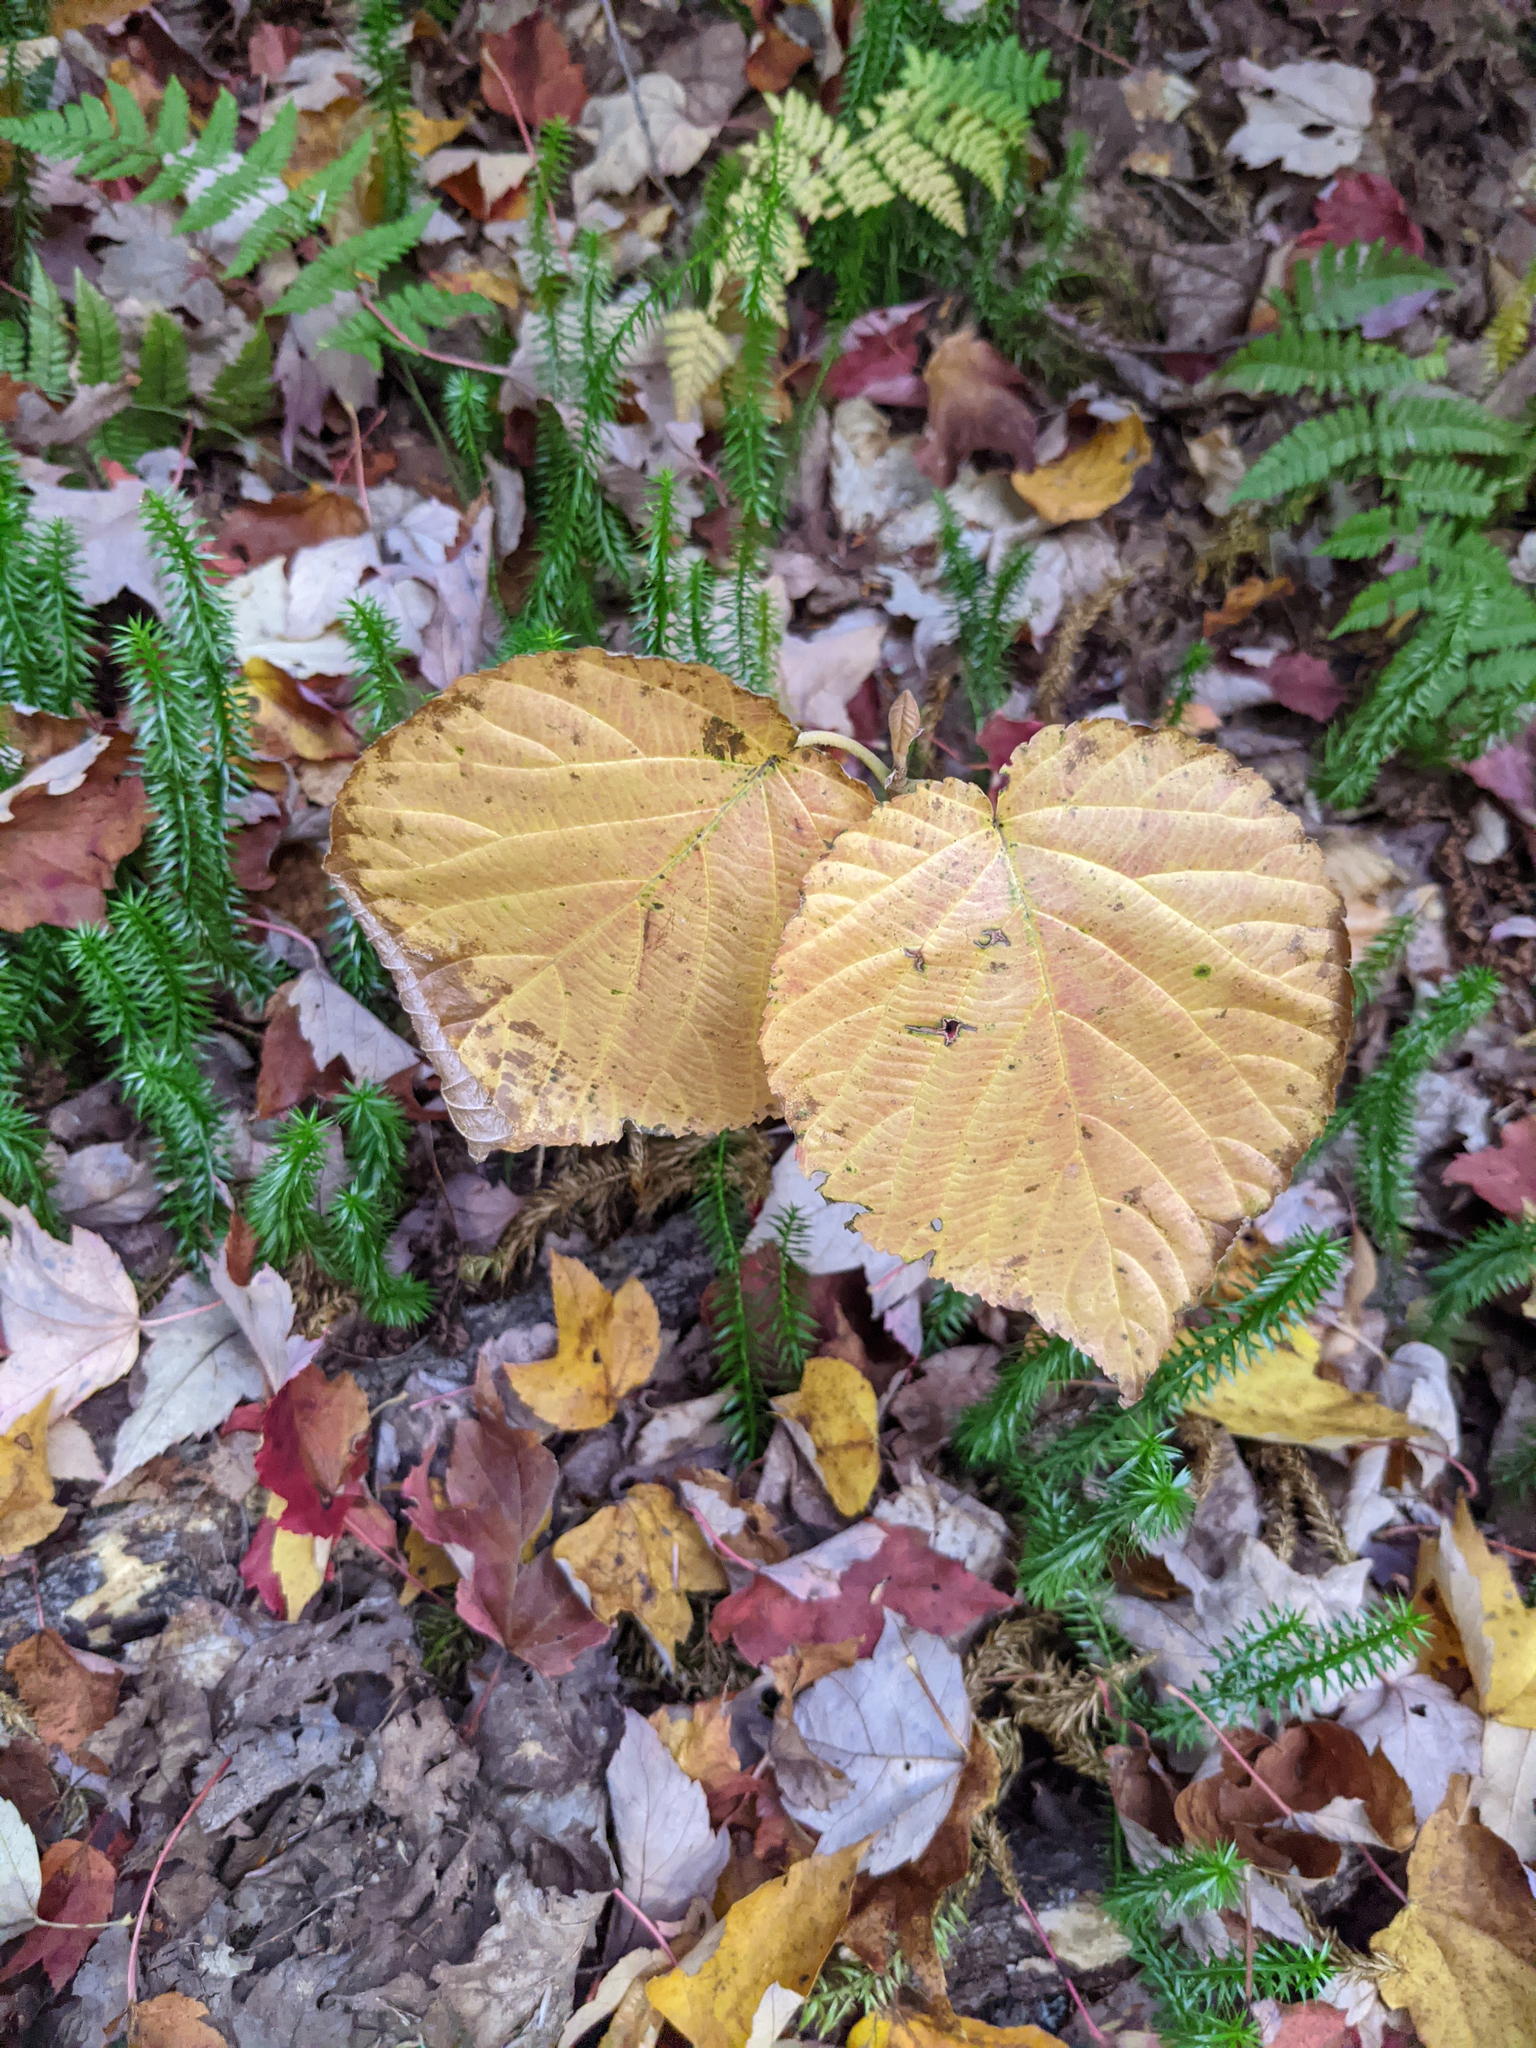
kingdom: Plantae
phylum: Tracheophyta
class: Magnoliopsida
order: Dipsacales
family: Viburnaceae
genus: Viburnum
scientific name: Viburnum lantanoides
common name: Hobblebush
